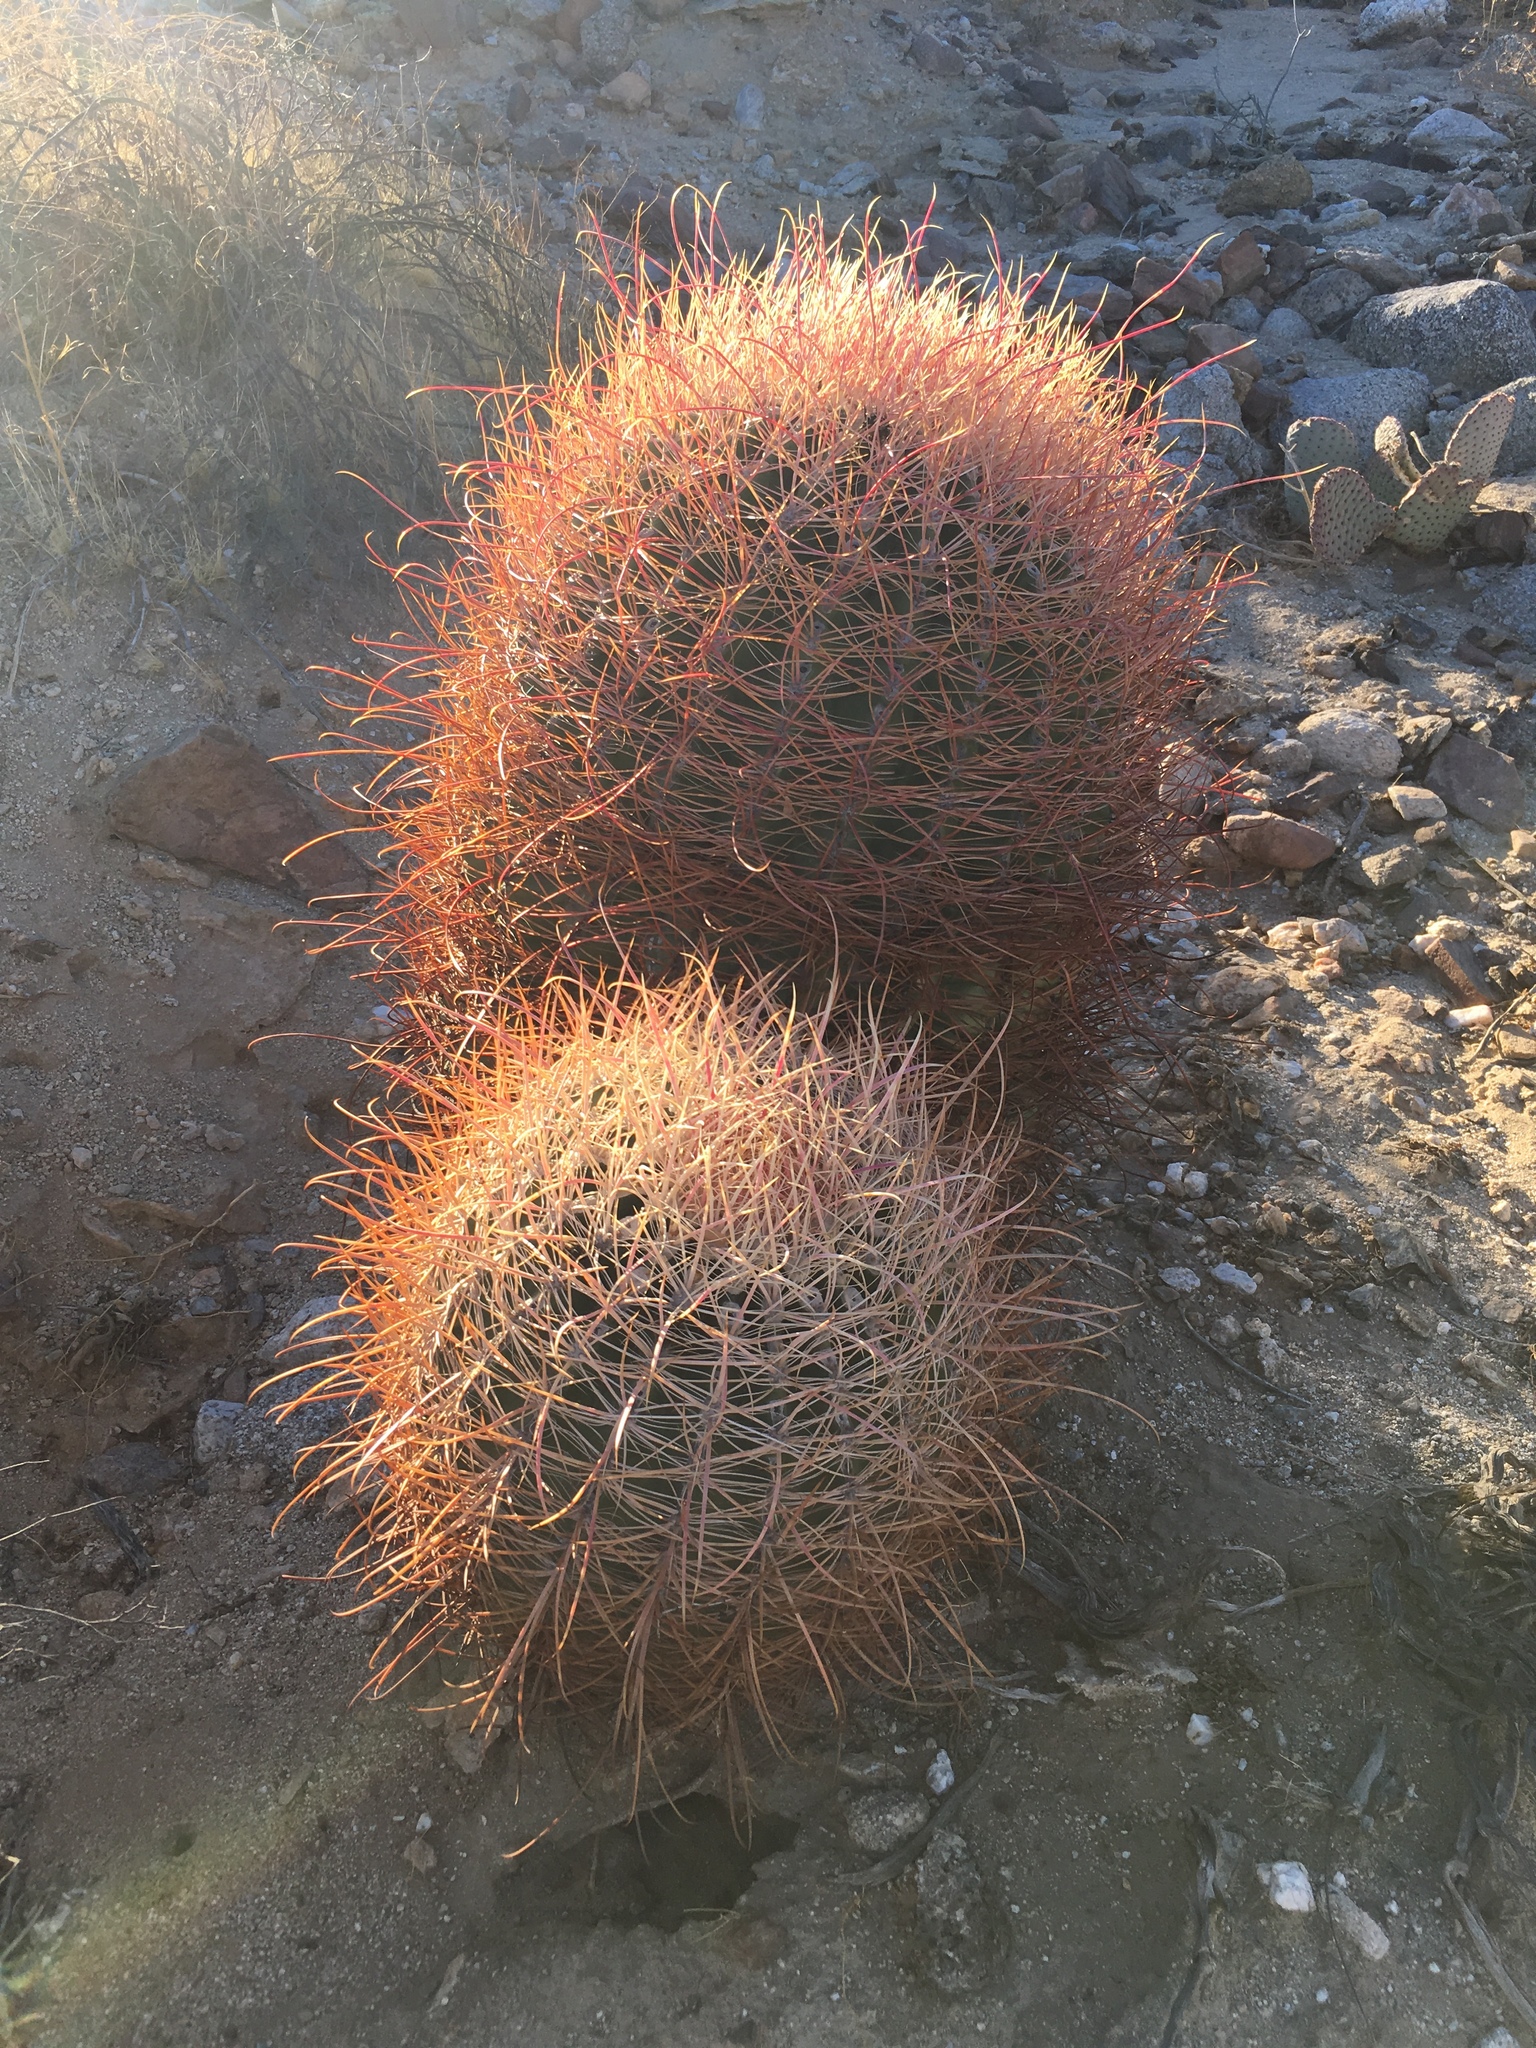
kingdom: Plantae
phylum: Tracheophyta
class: Magnoliopsida
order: Caryophyllales
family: Cactaceae
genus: Ferocactus
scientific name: Ferocactus cylindraceus
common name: California barrel cactus
